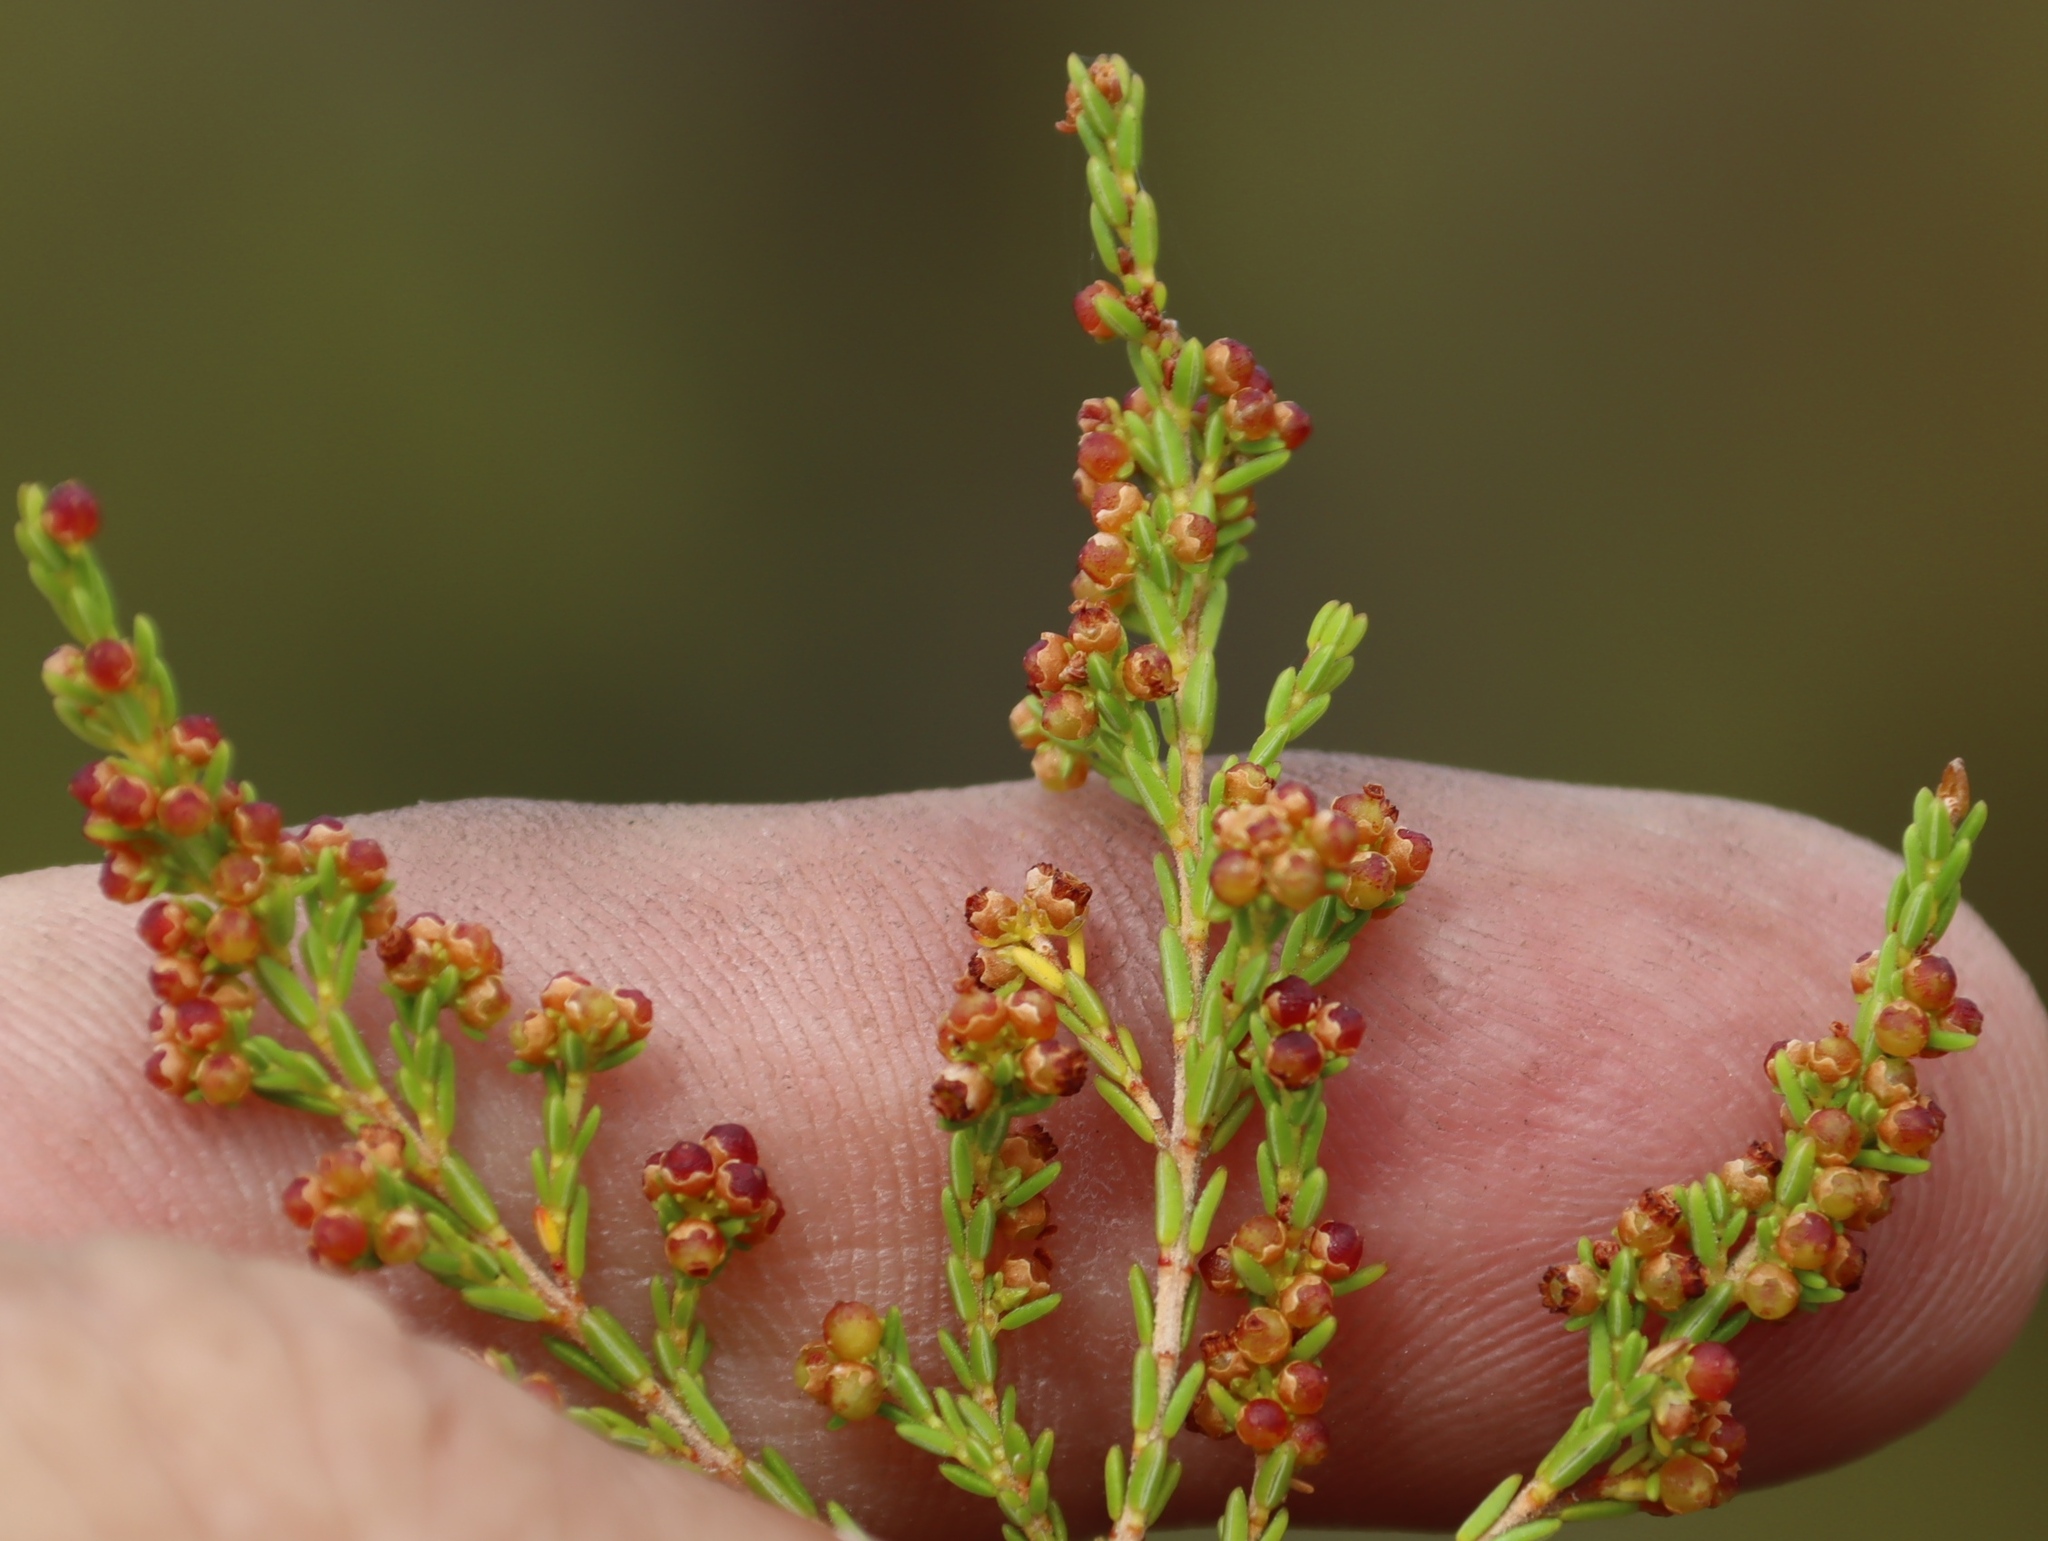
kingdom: Plantae
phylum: Tracheophyta
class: Magnoliopsida
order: Ericales
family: Ericaceae
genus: Erica
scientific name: Erica axillaris
